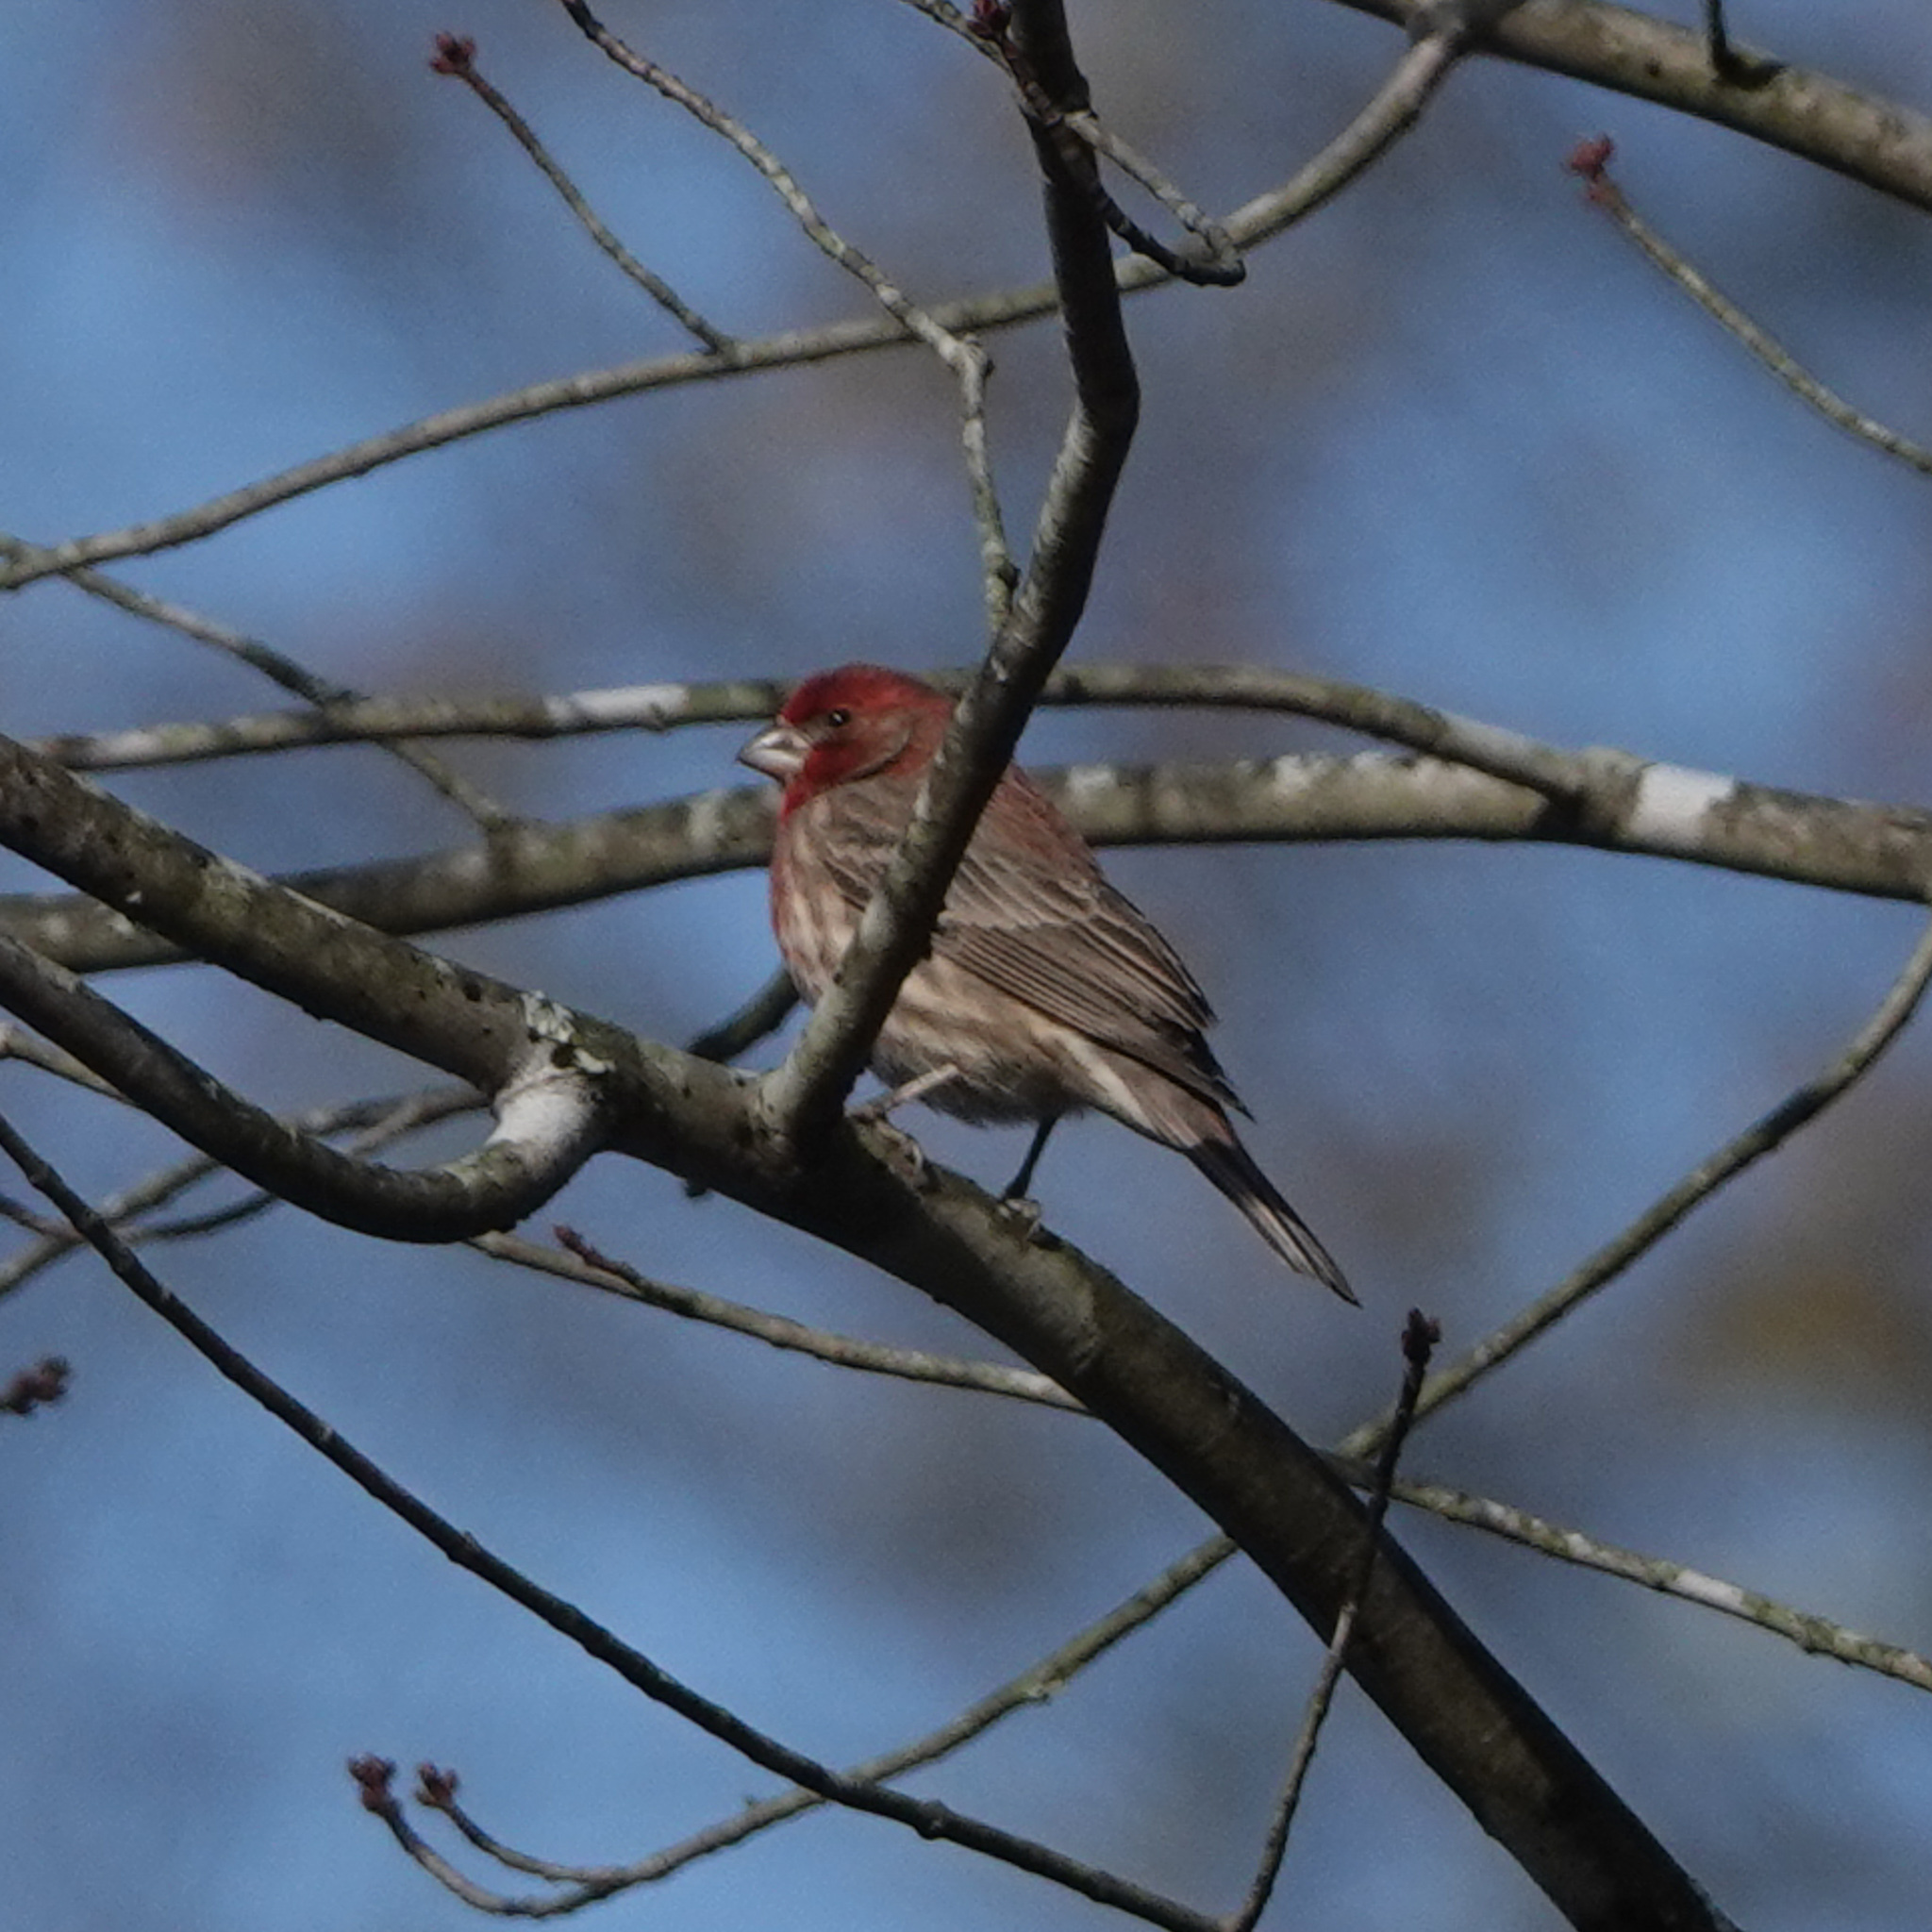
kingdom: Animalia
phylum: Chordata
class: Aves
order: Passeriformes
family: Fringillidae
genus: Haemorhous
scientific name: Haemorhous mexicanus
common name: House finch
